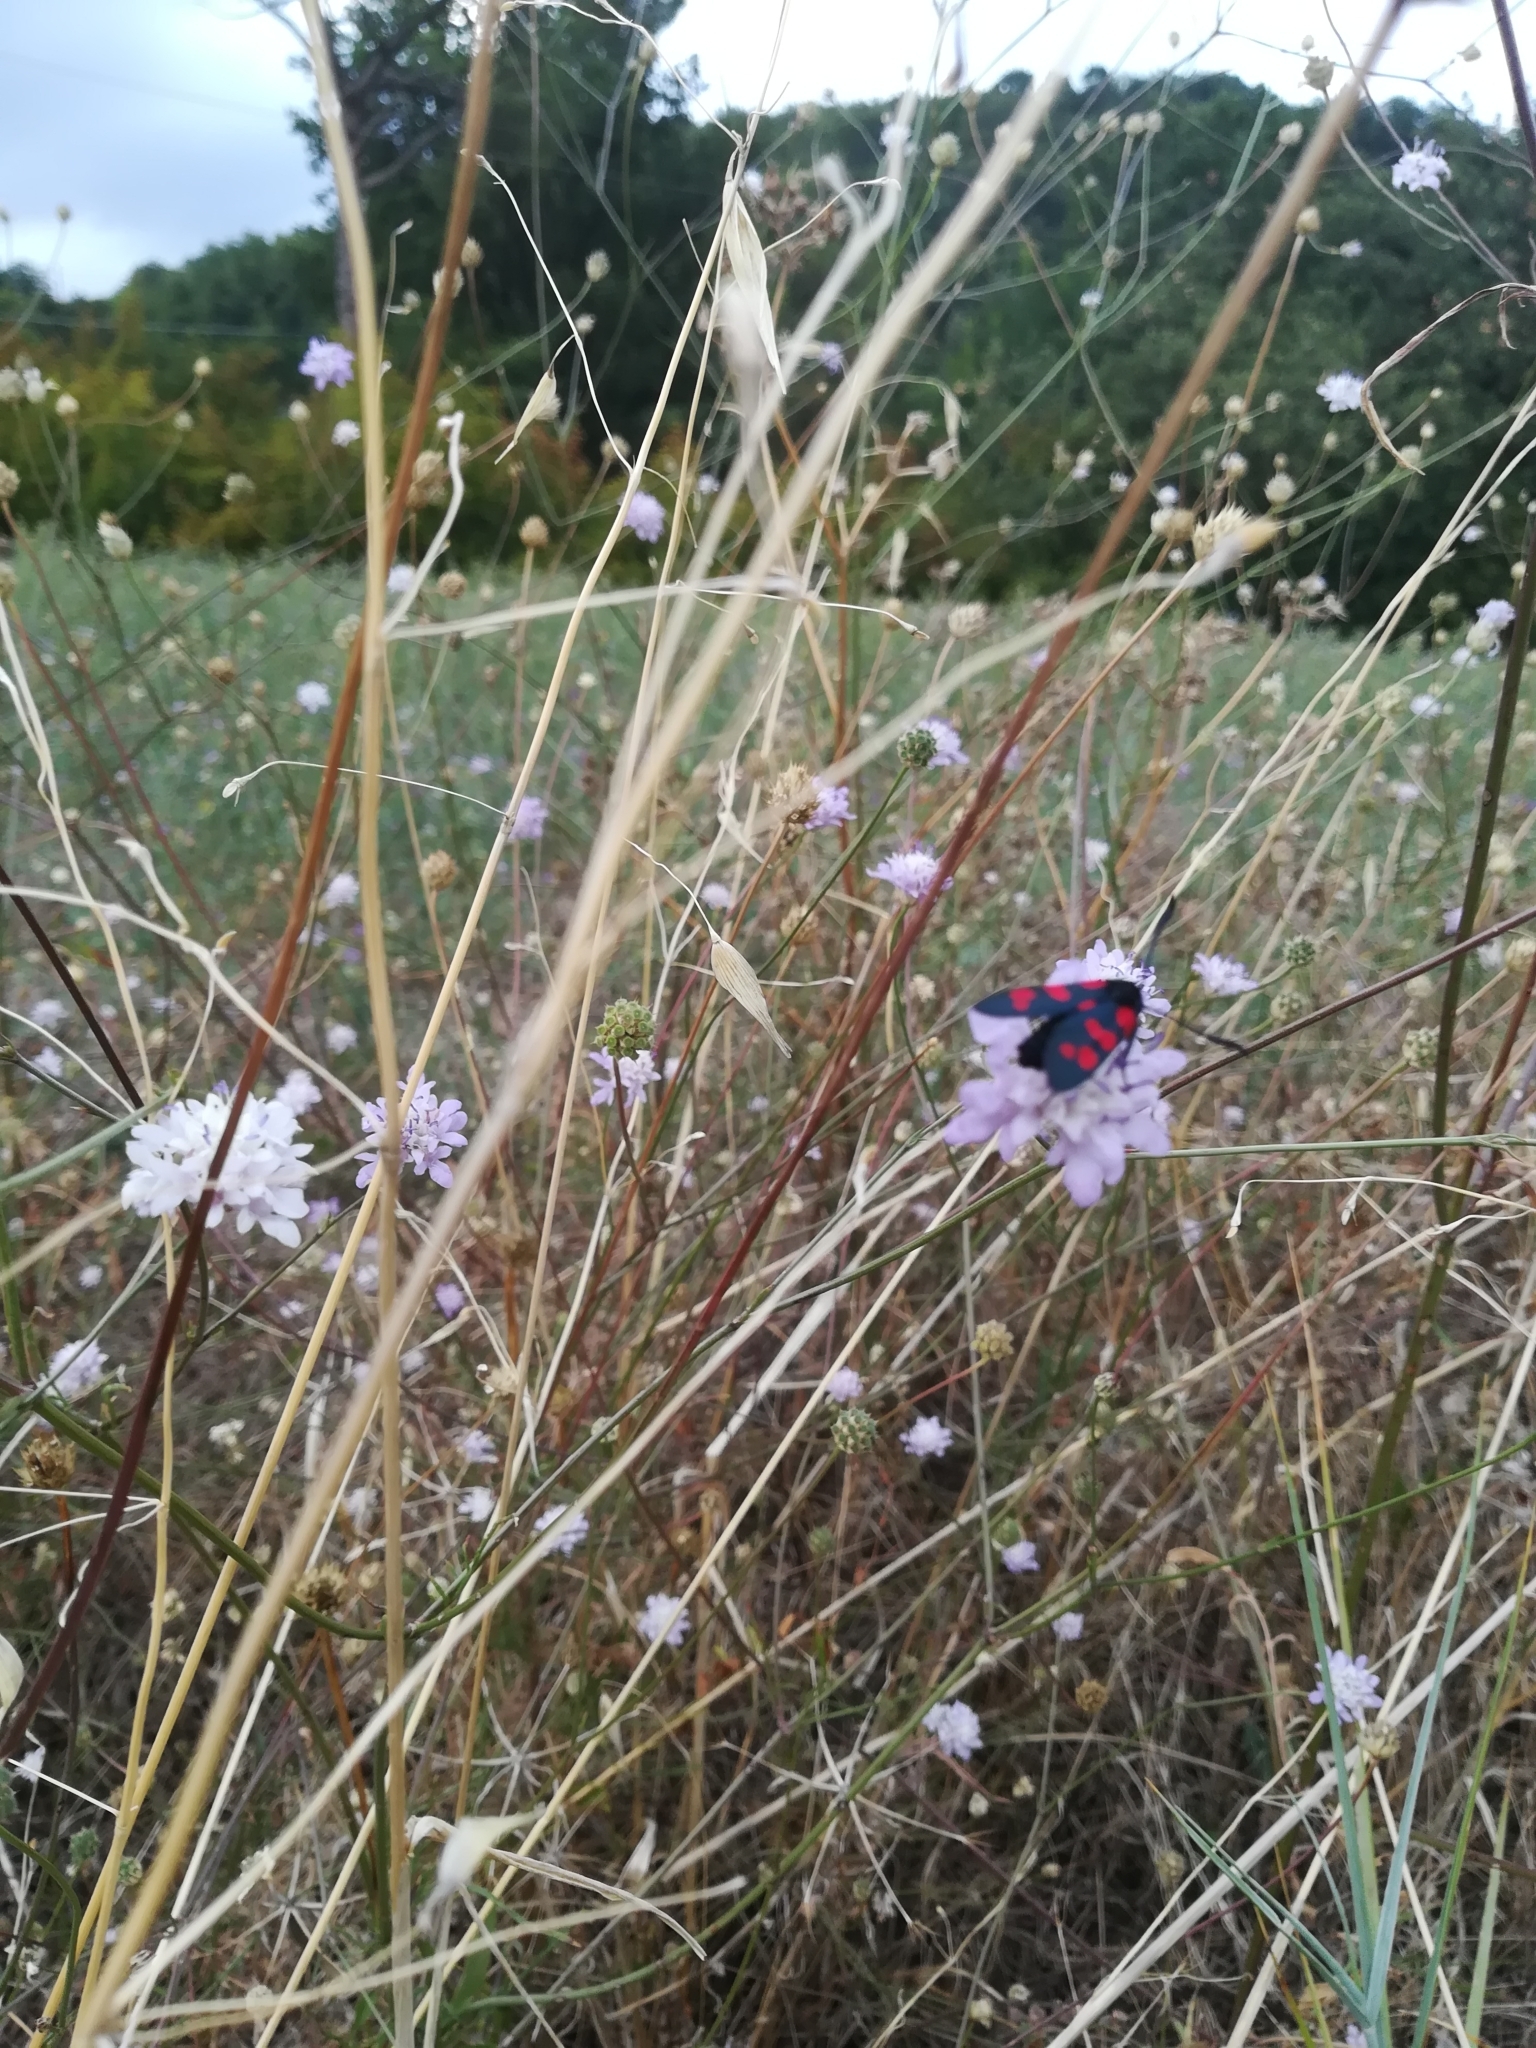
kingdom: Animalia
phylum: Arthropoda
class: Insecta
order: Lepidoptera
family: Zygaenidae
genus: Zygaena
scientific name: Zygaena filipendulae
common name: Six-spot burnet
